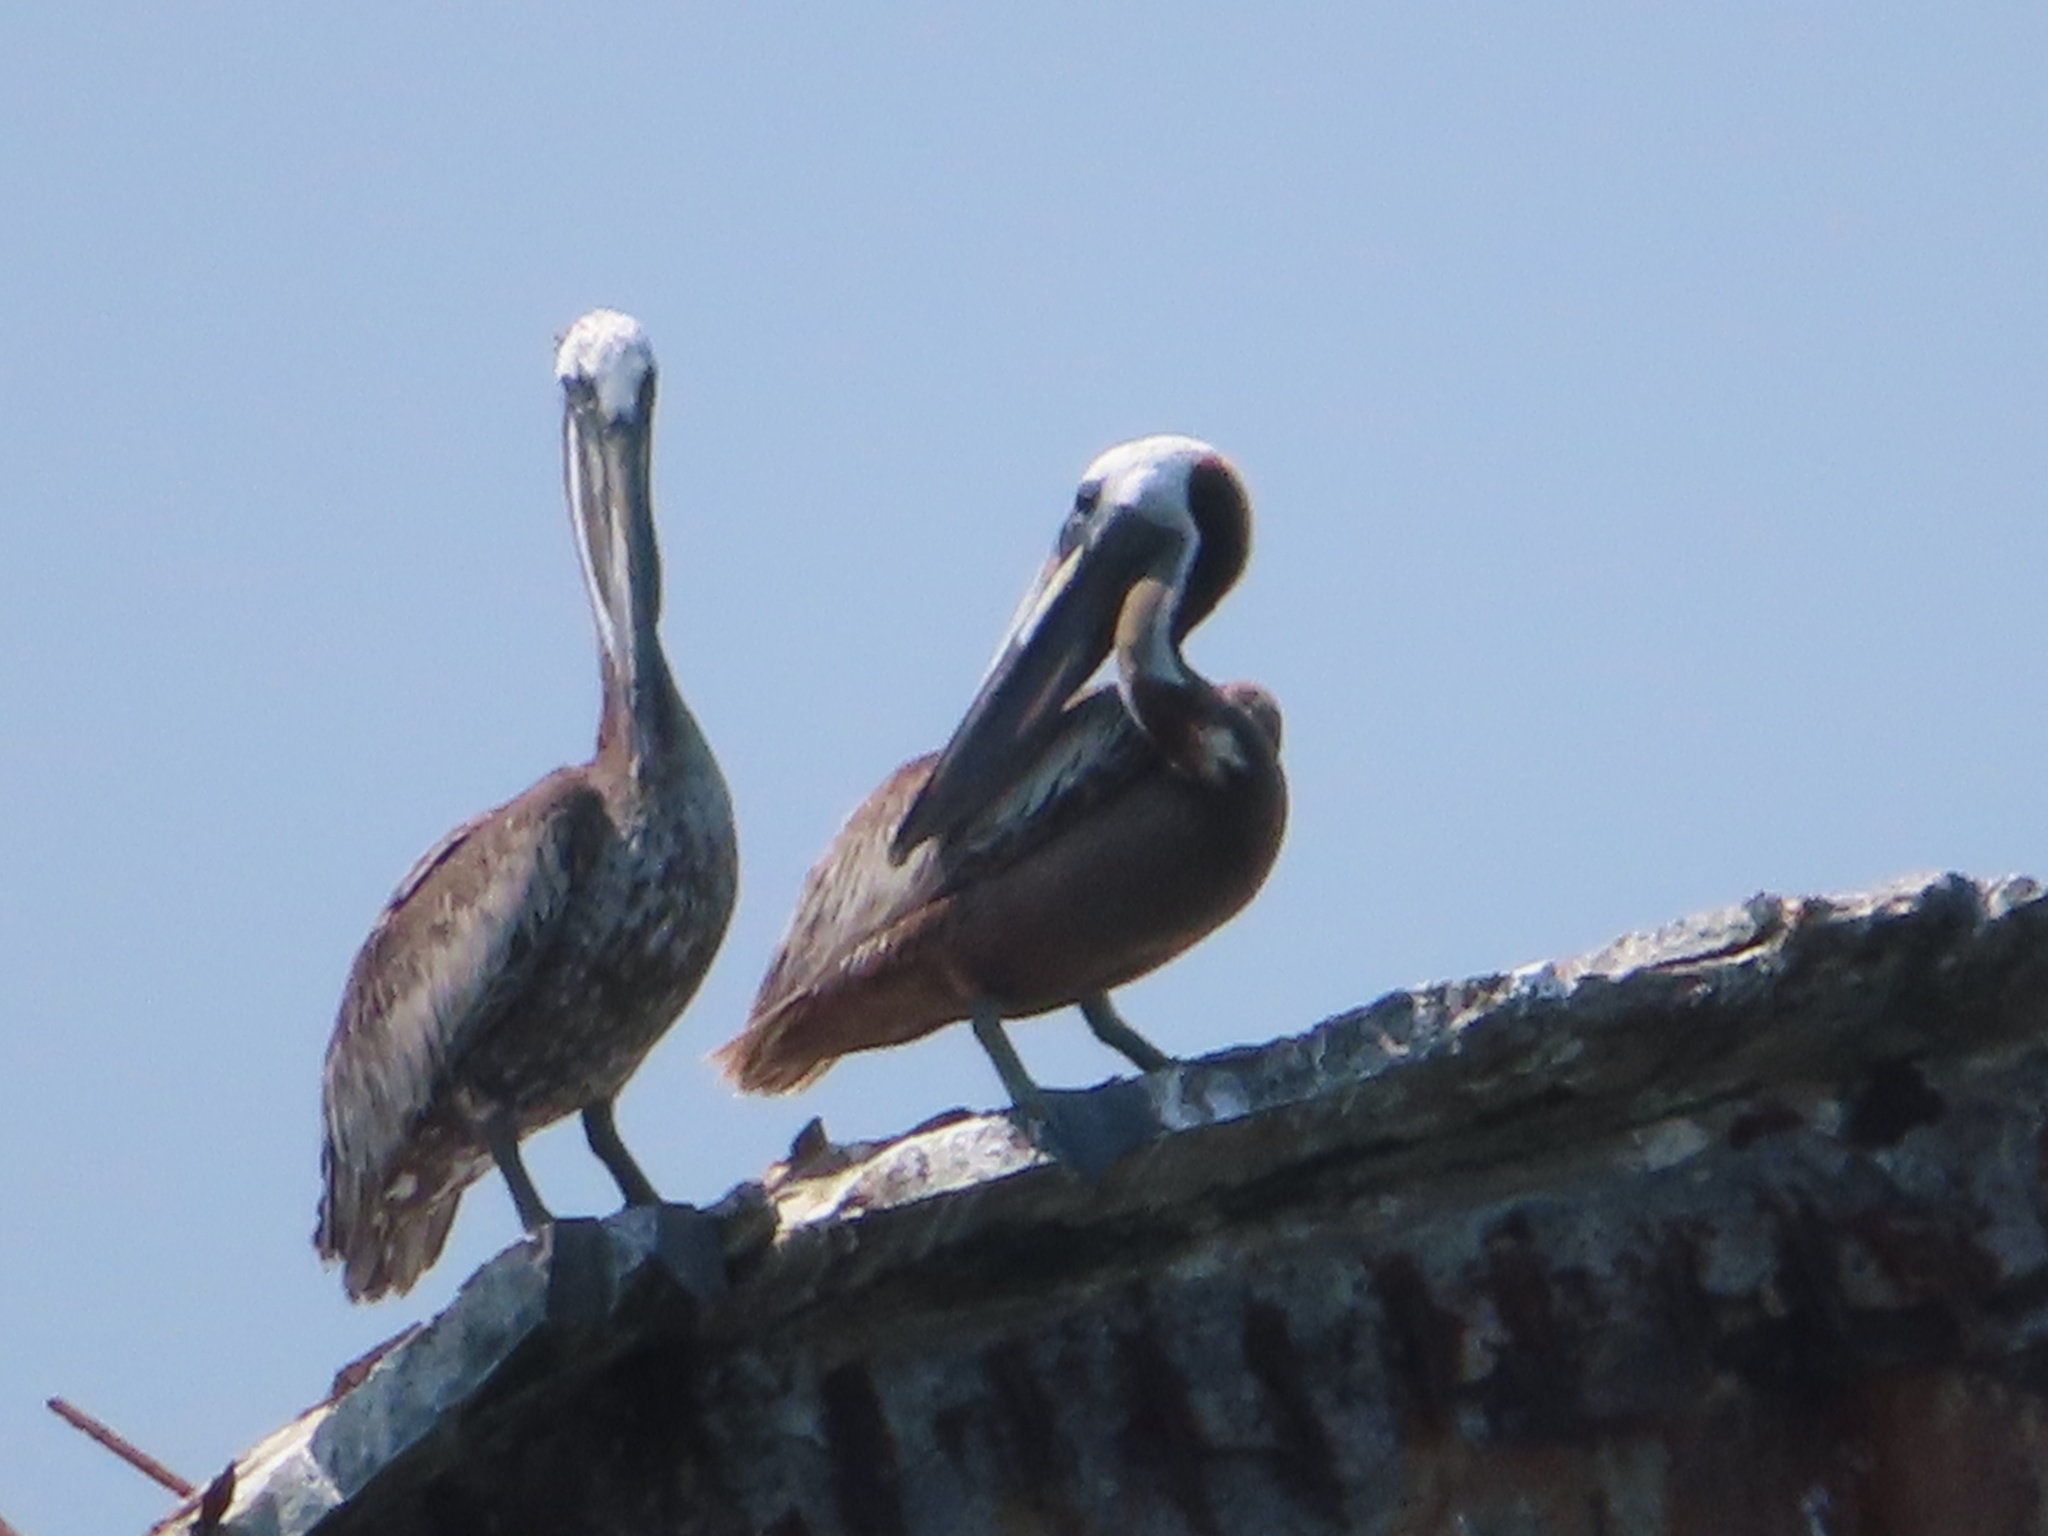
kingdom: Animalia
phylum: Chordata
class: Aves
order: Pelecaniformes
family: Pelecanidae
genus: Pelecanus
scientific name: Pelecanus occidentalis
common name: Brown pelican
